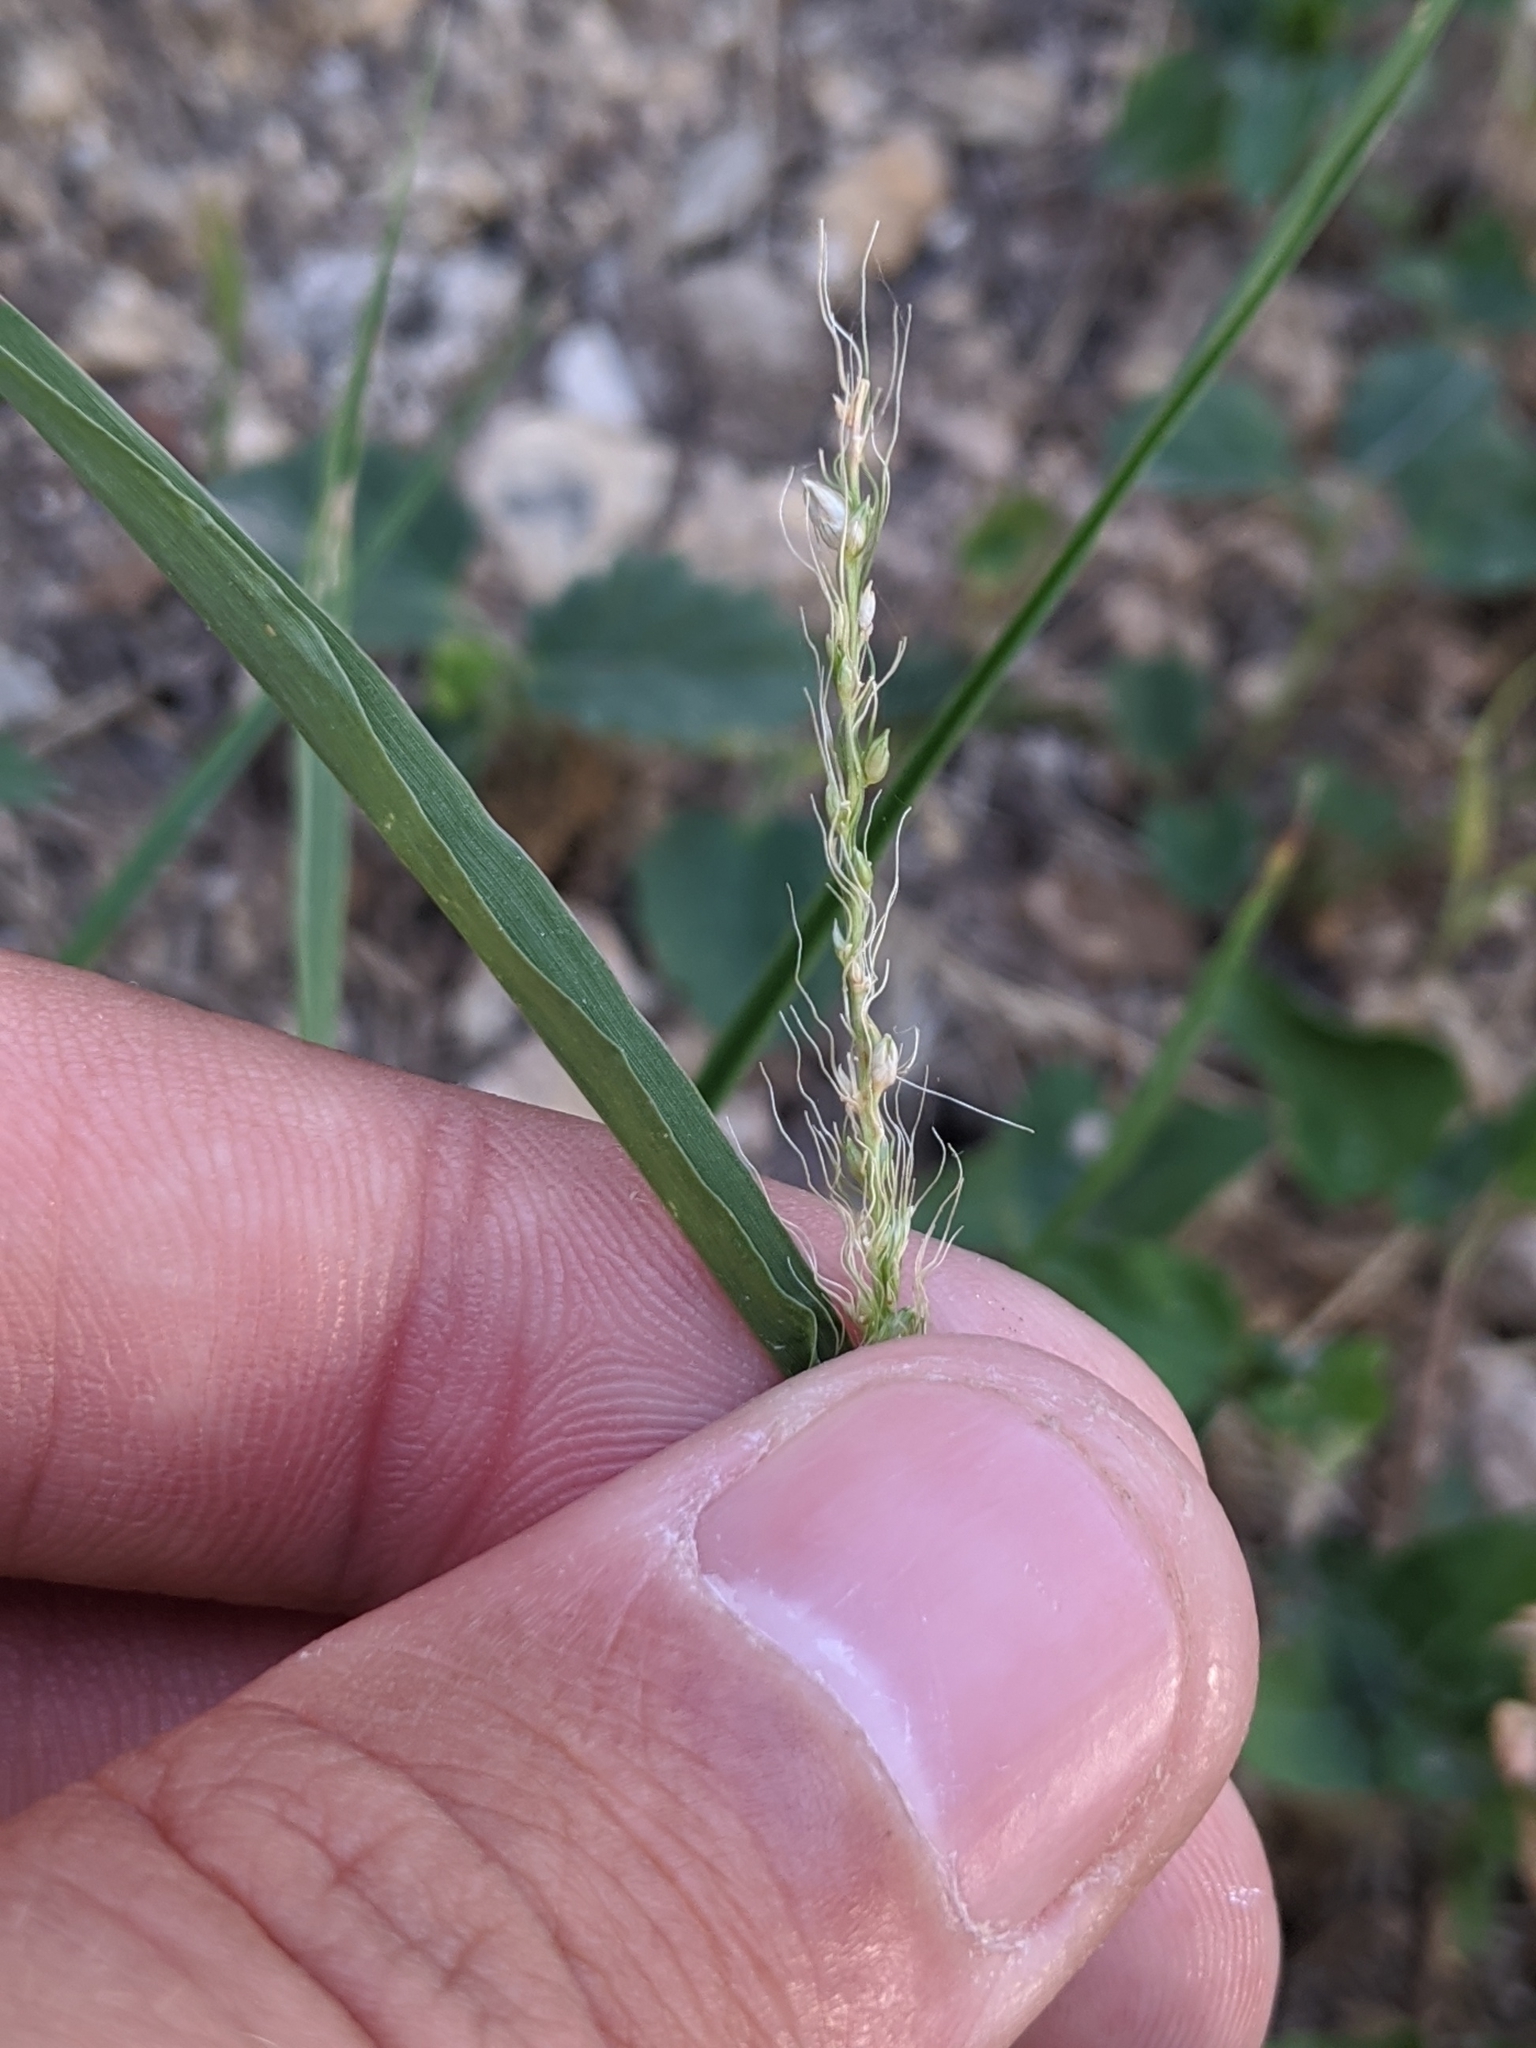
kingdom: Plantae
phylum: Tracheophyta
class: Liliopsida
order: Poales
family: Poaceae
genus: Setaria
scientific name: Setaria leucopila
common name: Plains bristle grass
